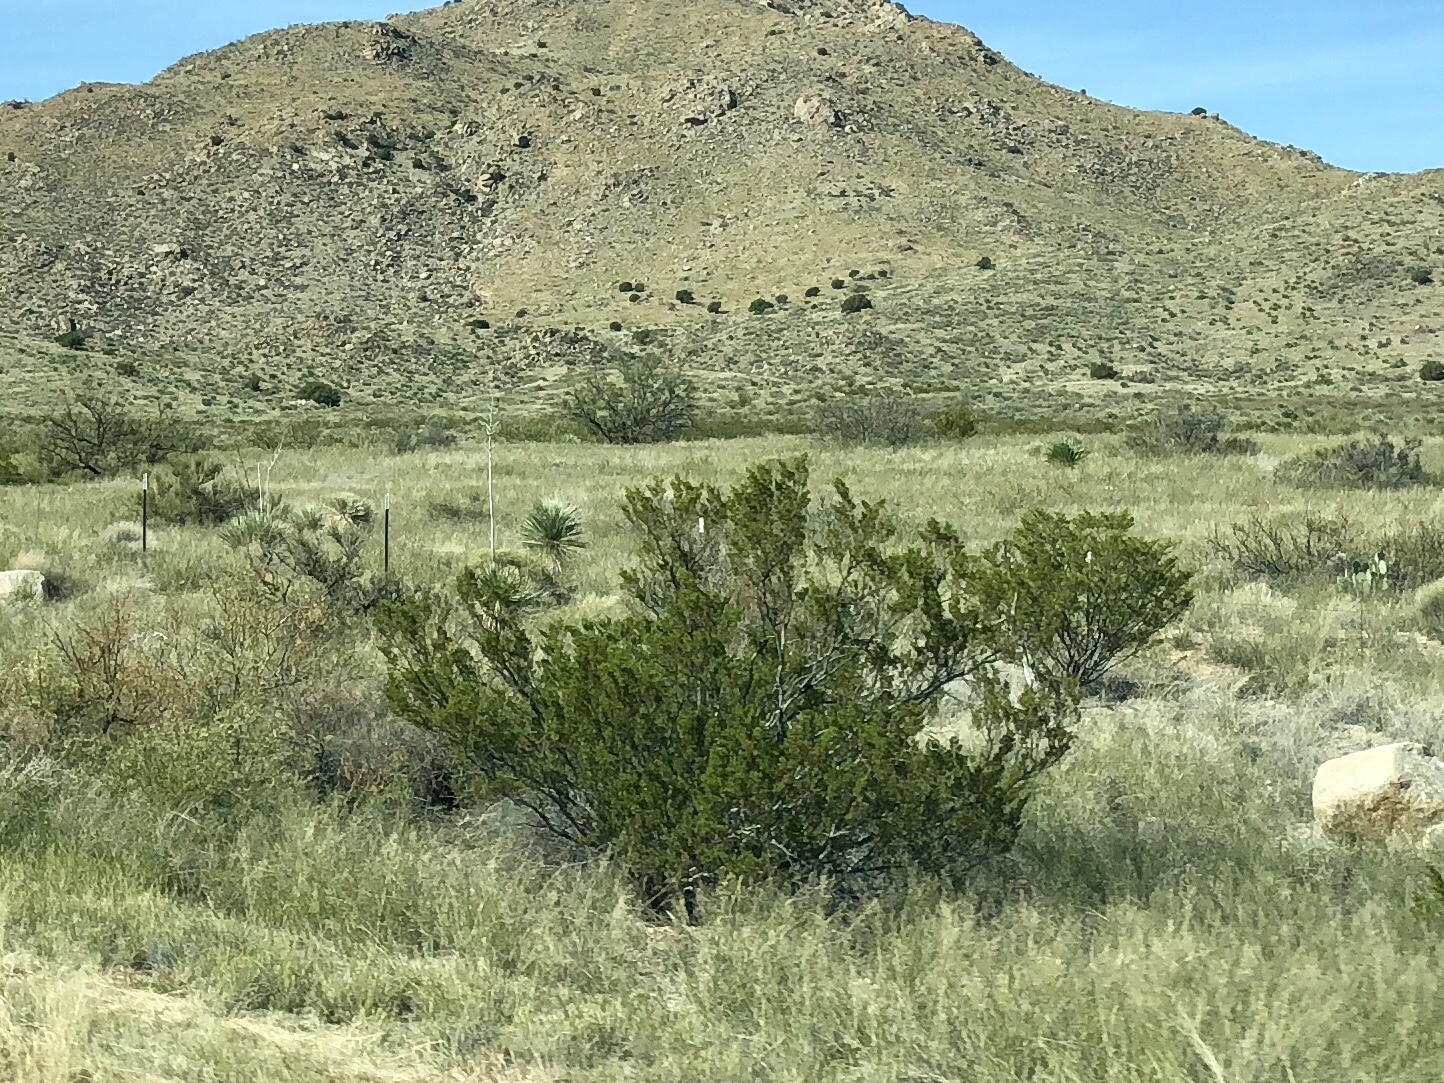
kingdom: Plantae
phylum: Tracheophyta
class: Magnoliopsida
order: Zygophyllales
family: Zygophyllaceae
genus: Larrea
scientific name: Larrea tridentata
